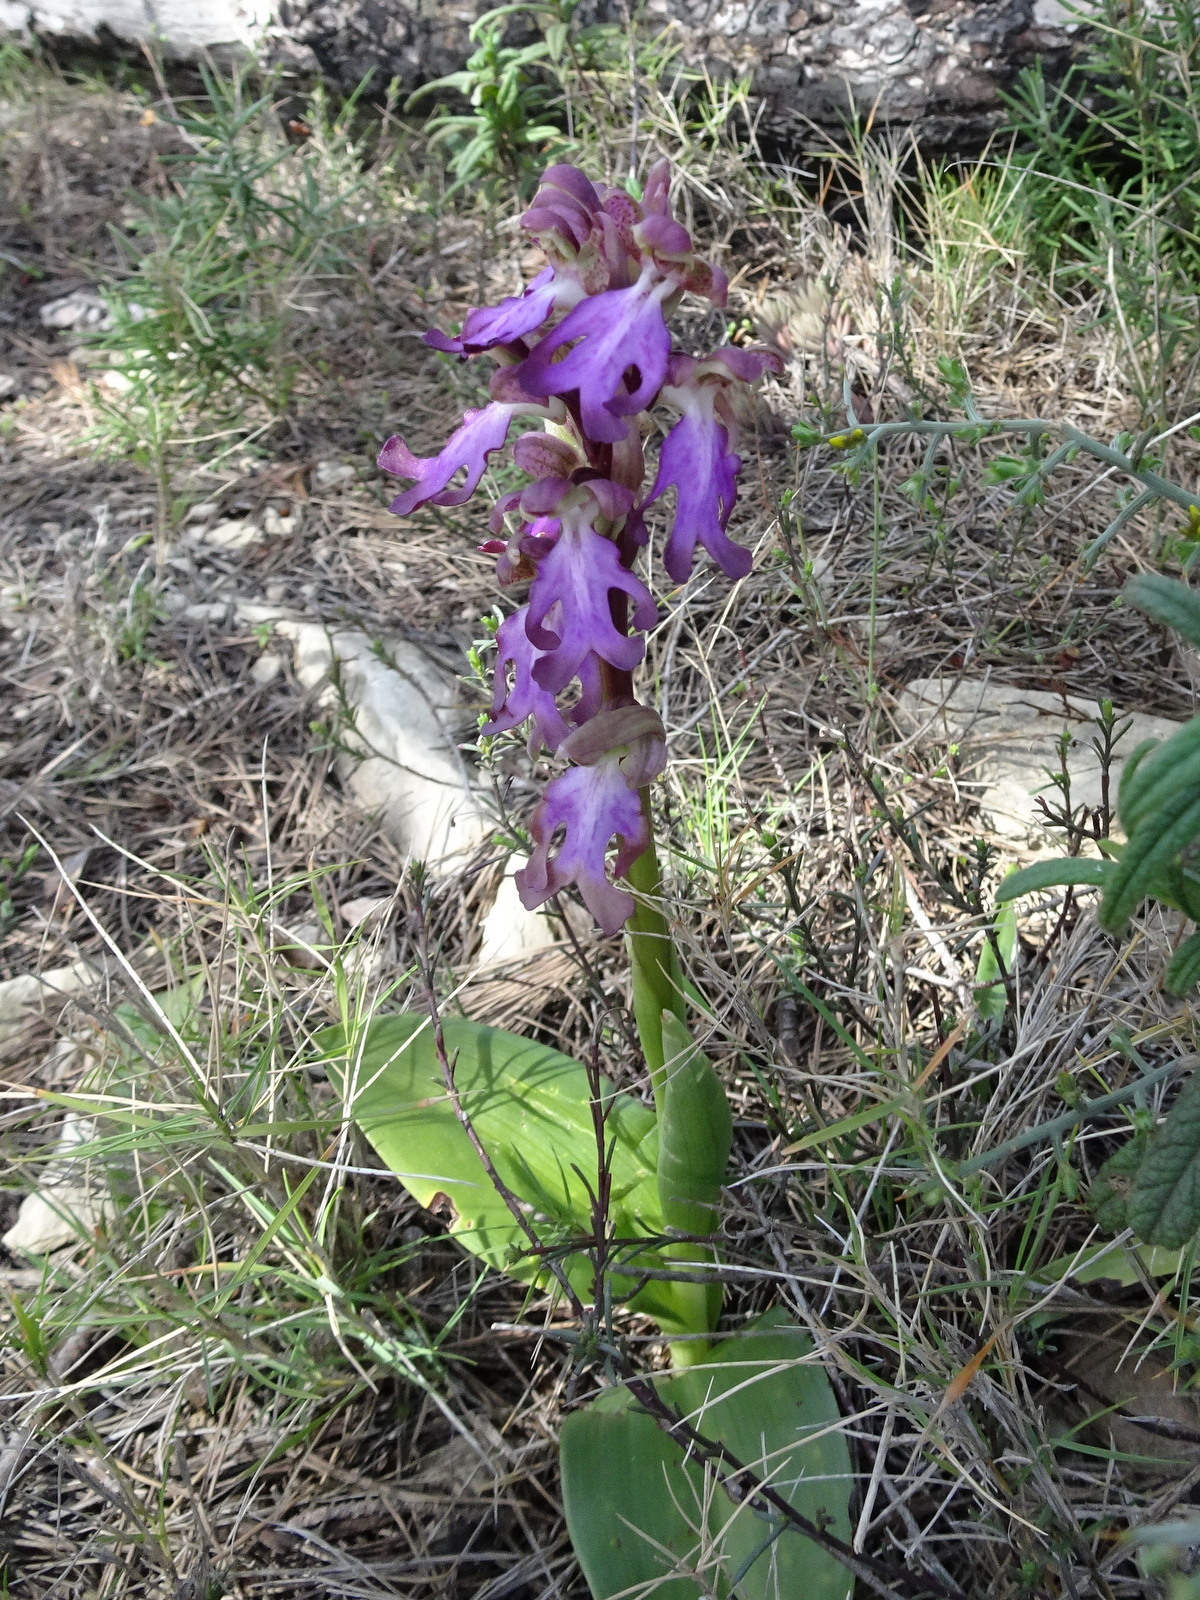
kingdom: Plantae
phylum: Tracheophyta
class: Liliopsida
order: Asparagales
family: Orchidaceae
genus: Himantoglossum
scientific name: Himantoglossum robertianum
